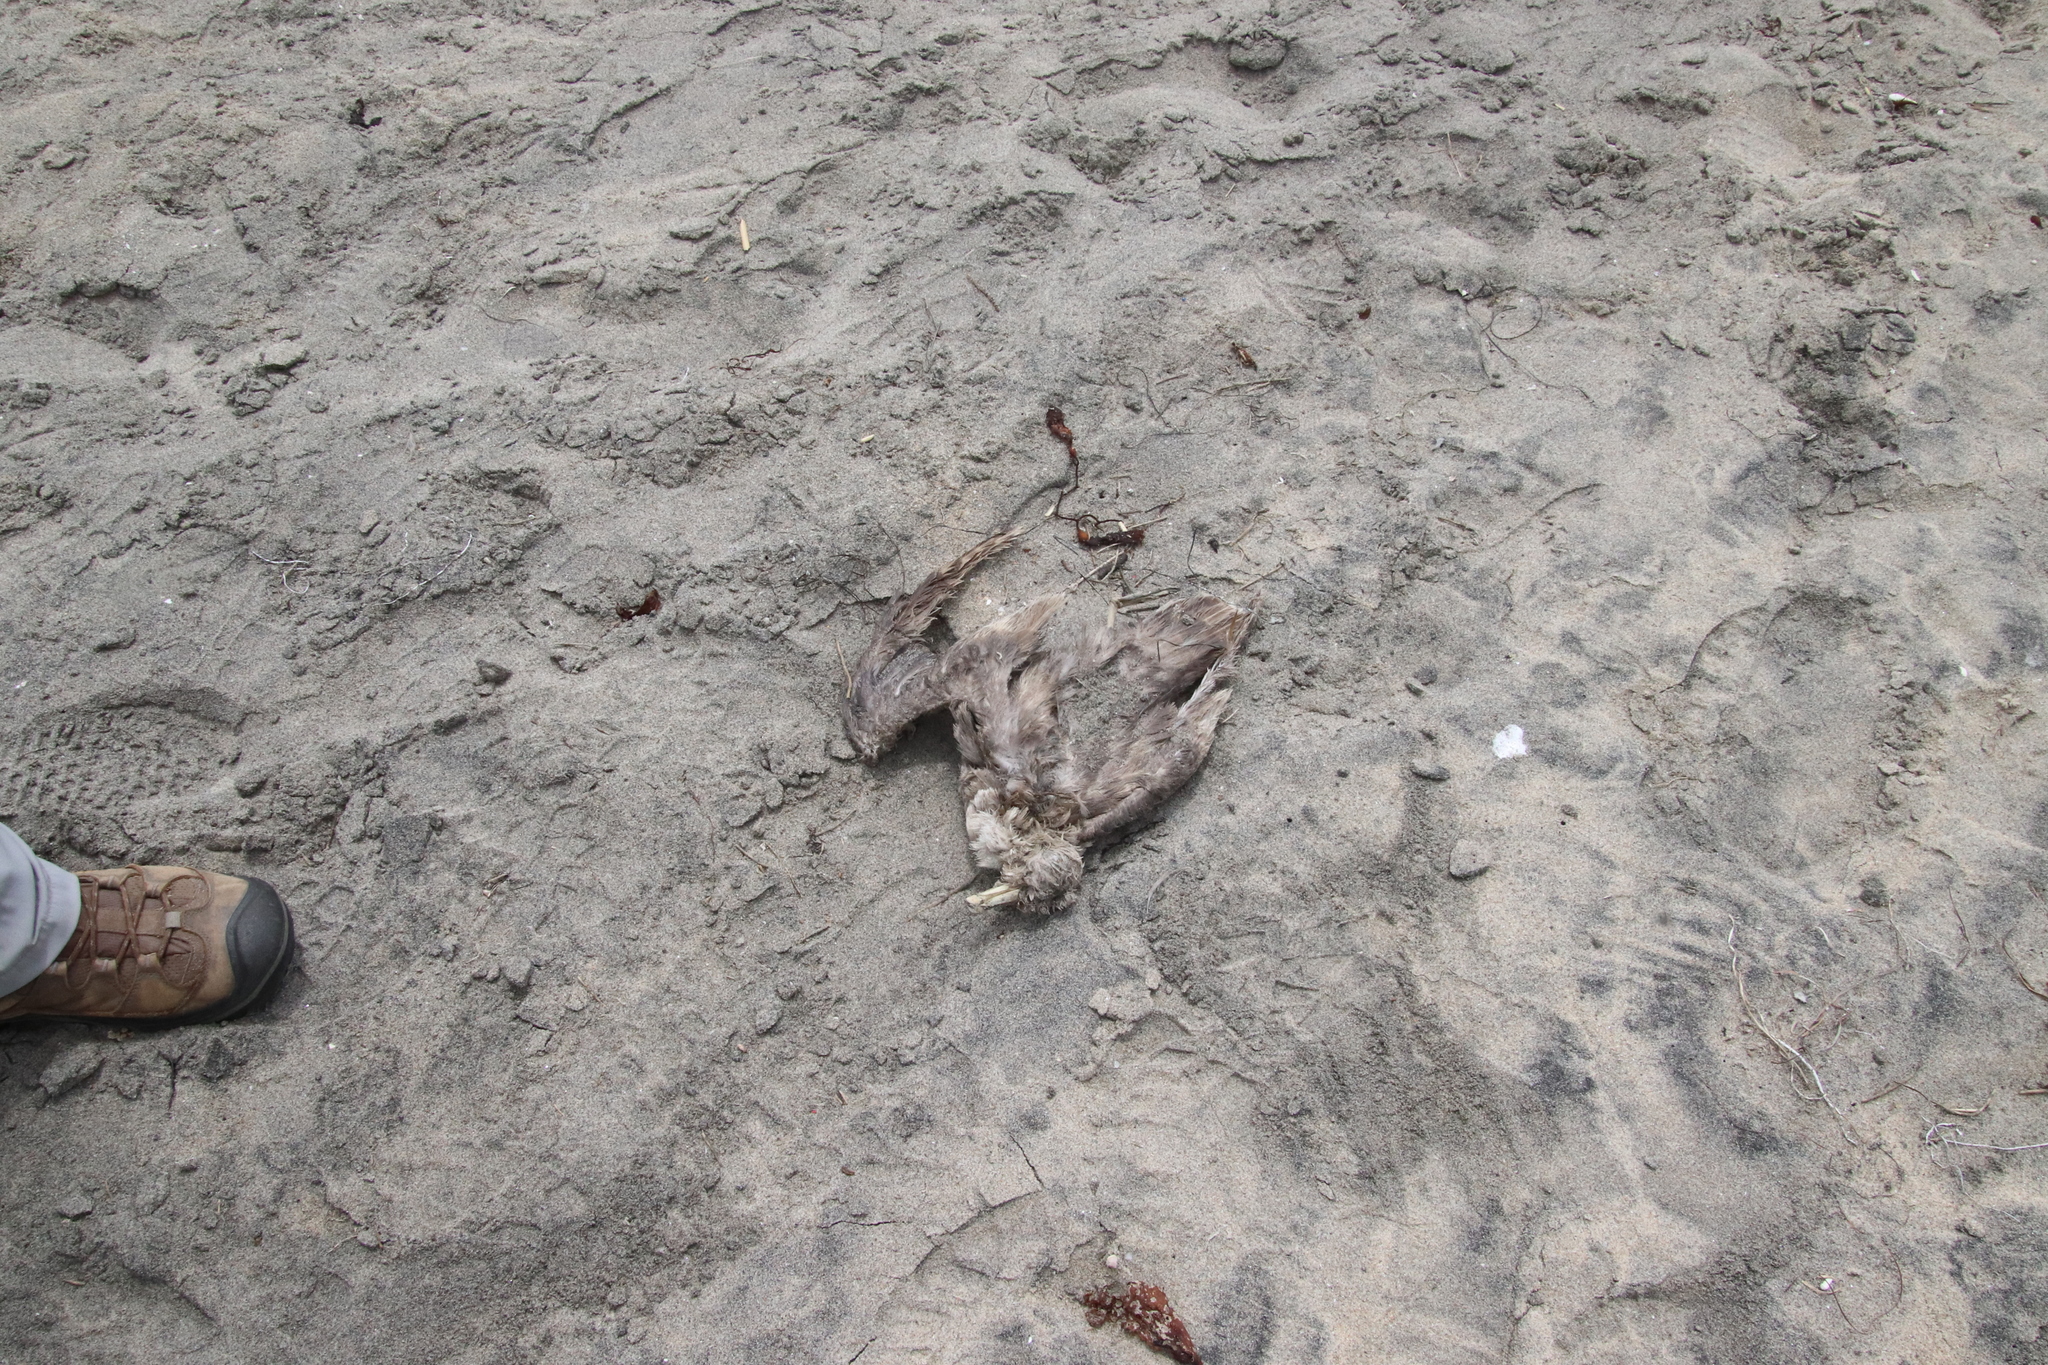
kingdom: Animalia
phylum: Chordata
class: Aves
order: Procellariiformes
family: Procellariidae
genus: Fulmarus
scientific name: Fulmarus glacialis
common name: Northern fulmar
